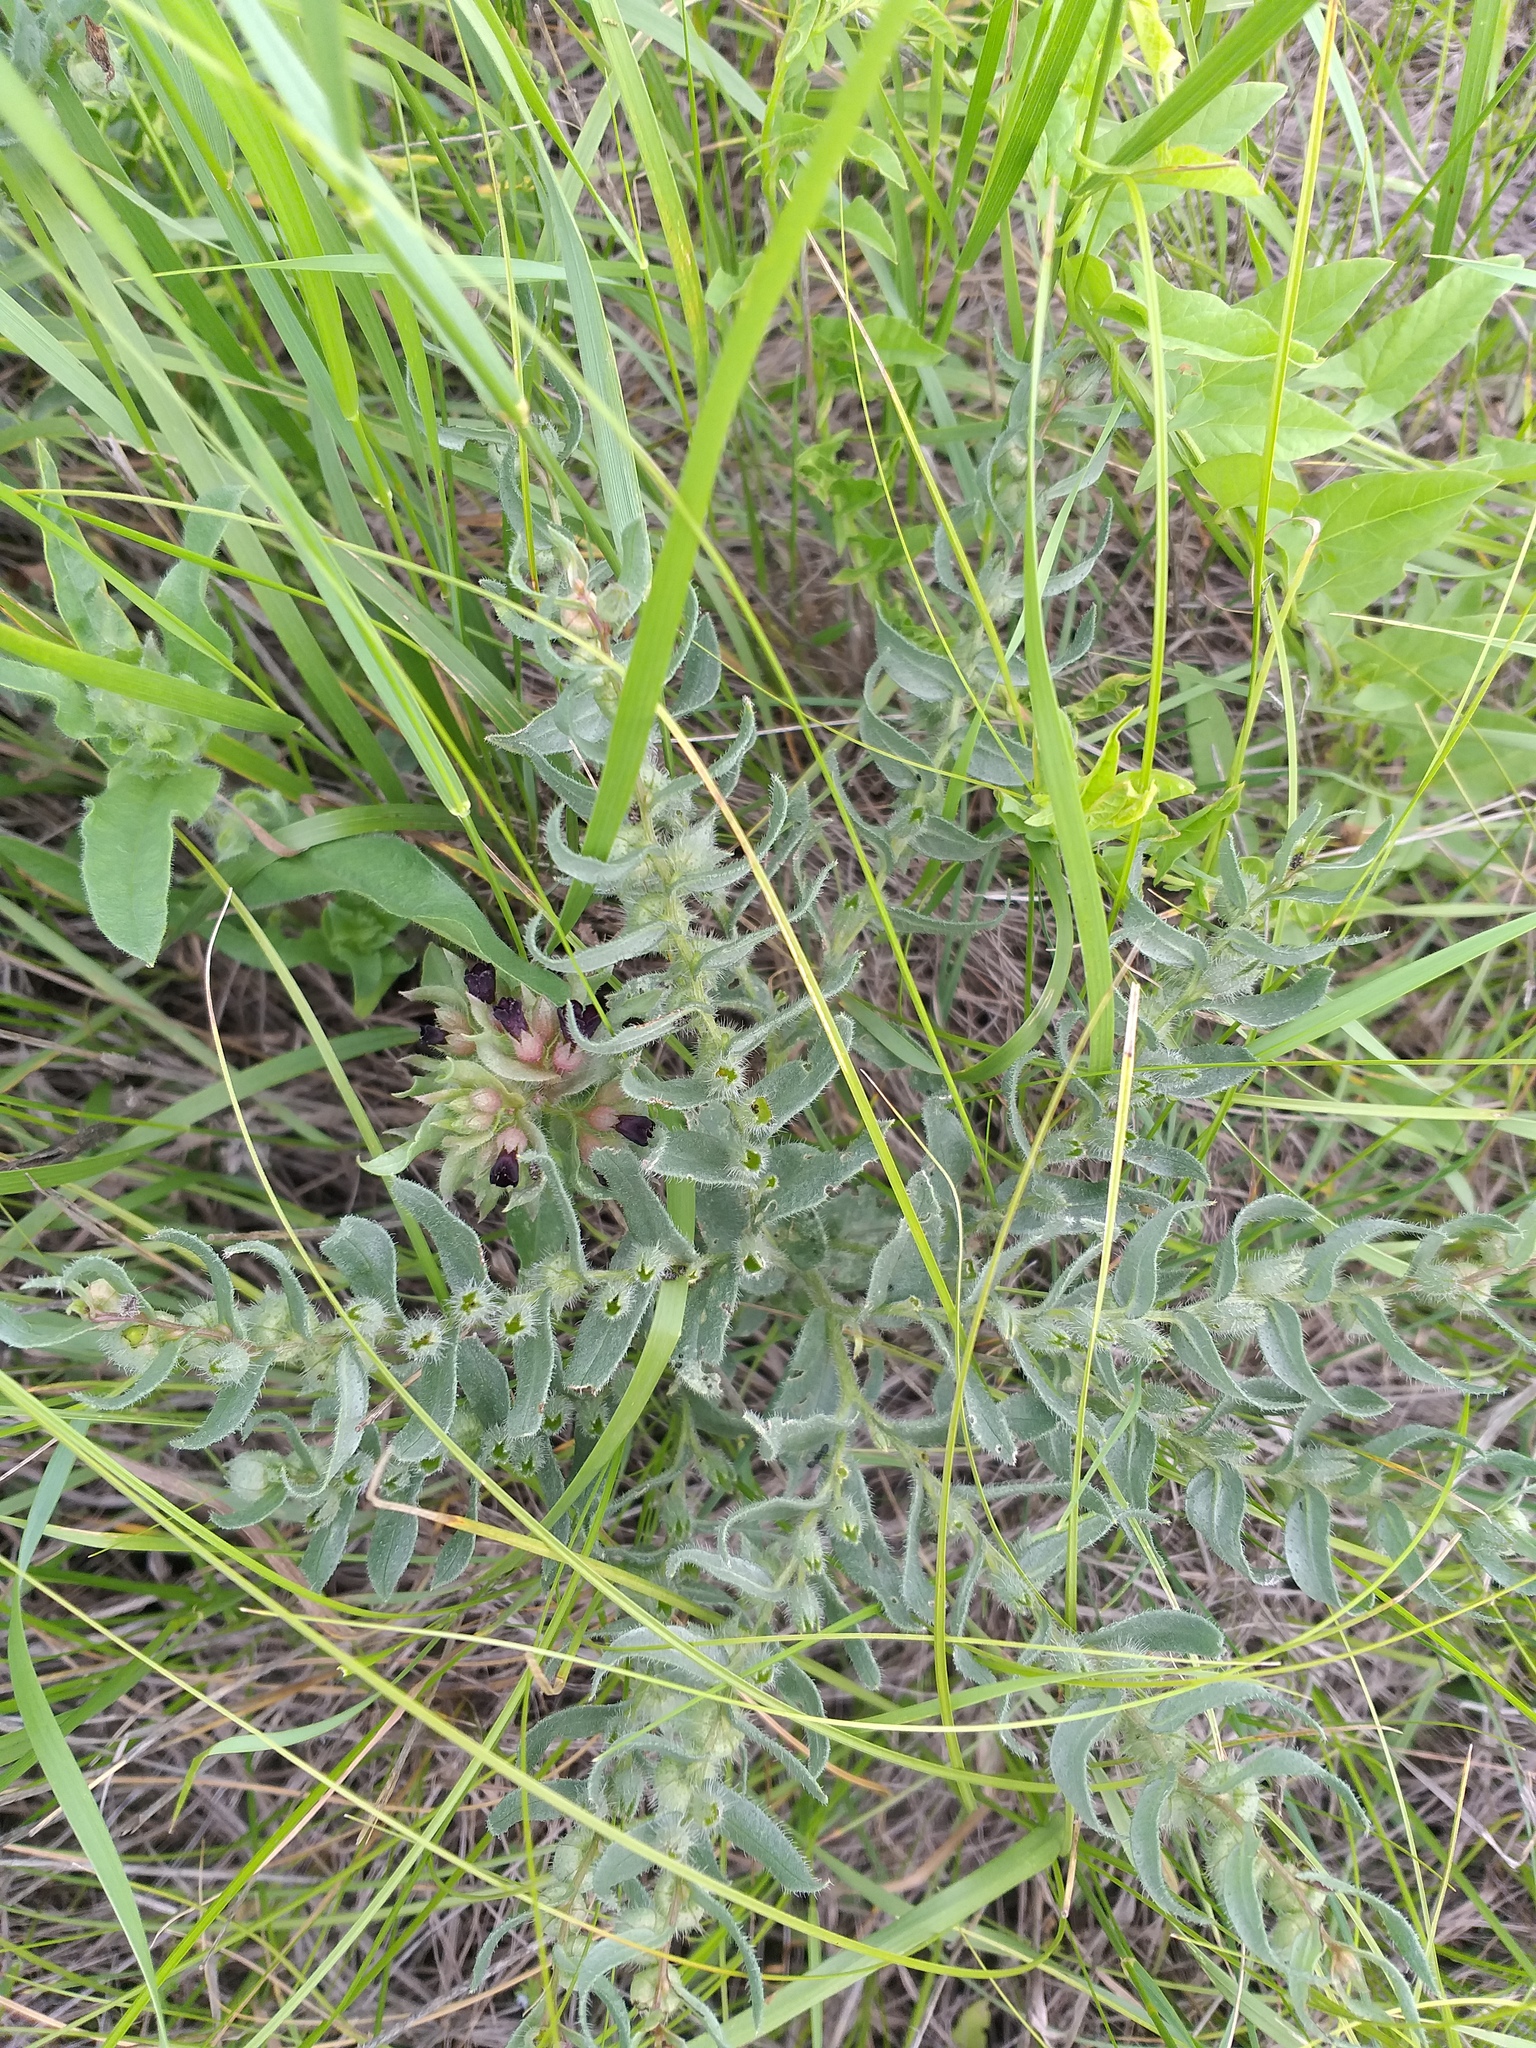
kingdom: Plantae
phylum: Tracheophyta
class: Magnoliopsida
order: Boraginales
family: Boraginaceae
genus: Nonea
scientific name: Nonea pulla
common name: Brown nonea
